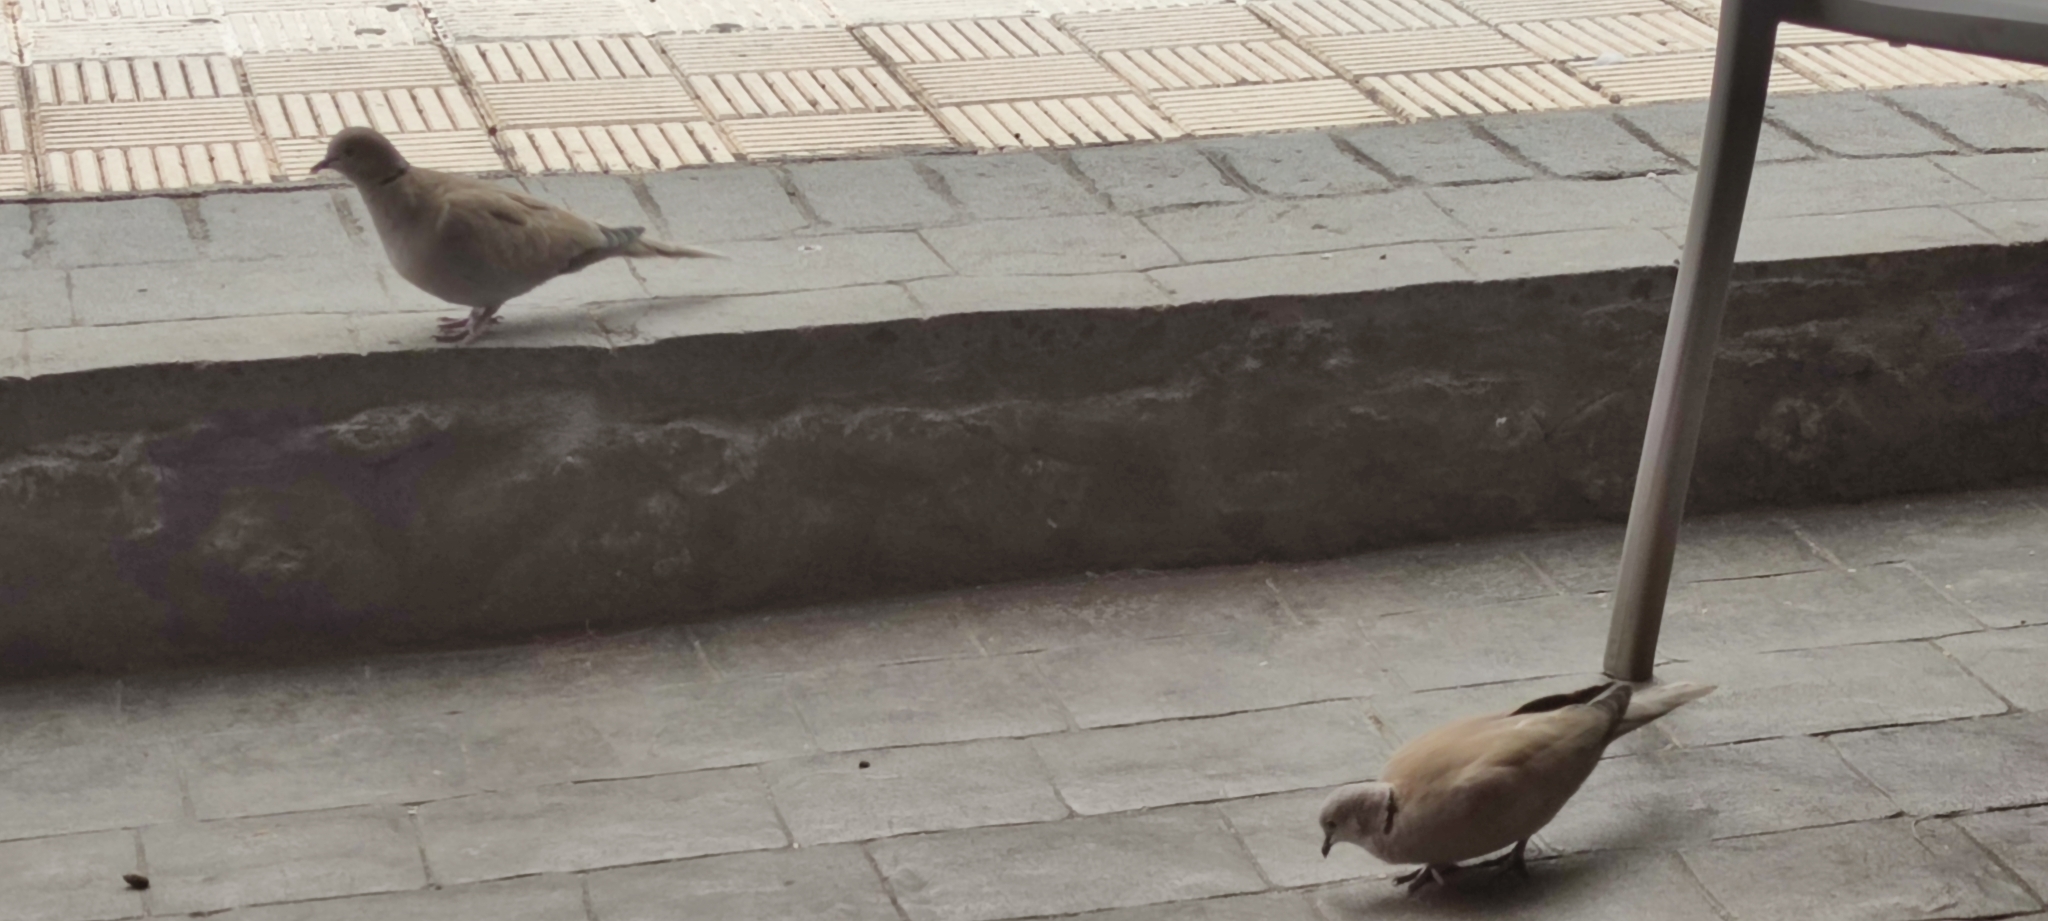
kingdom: Animalia
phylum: Chordata
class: Aves
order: Columbiformes
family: Columbidae
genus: Streptopelia
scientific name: Streptopelia decaocto
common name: Eurasian collared dove
